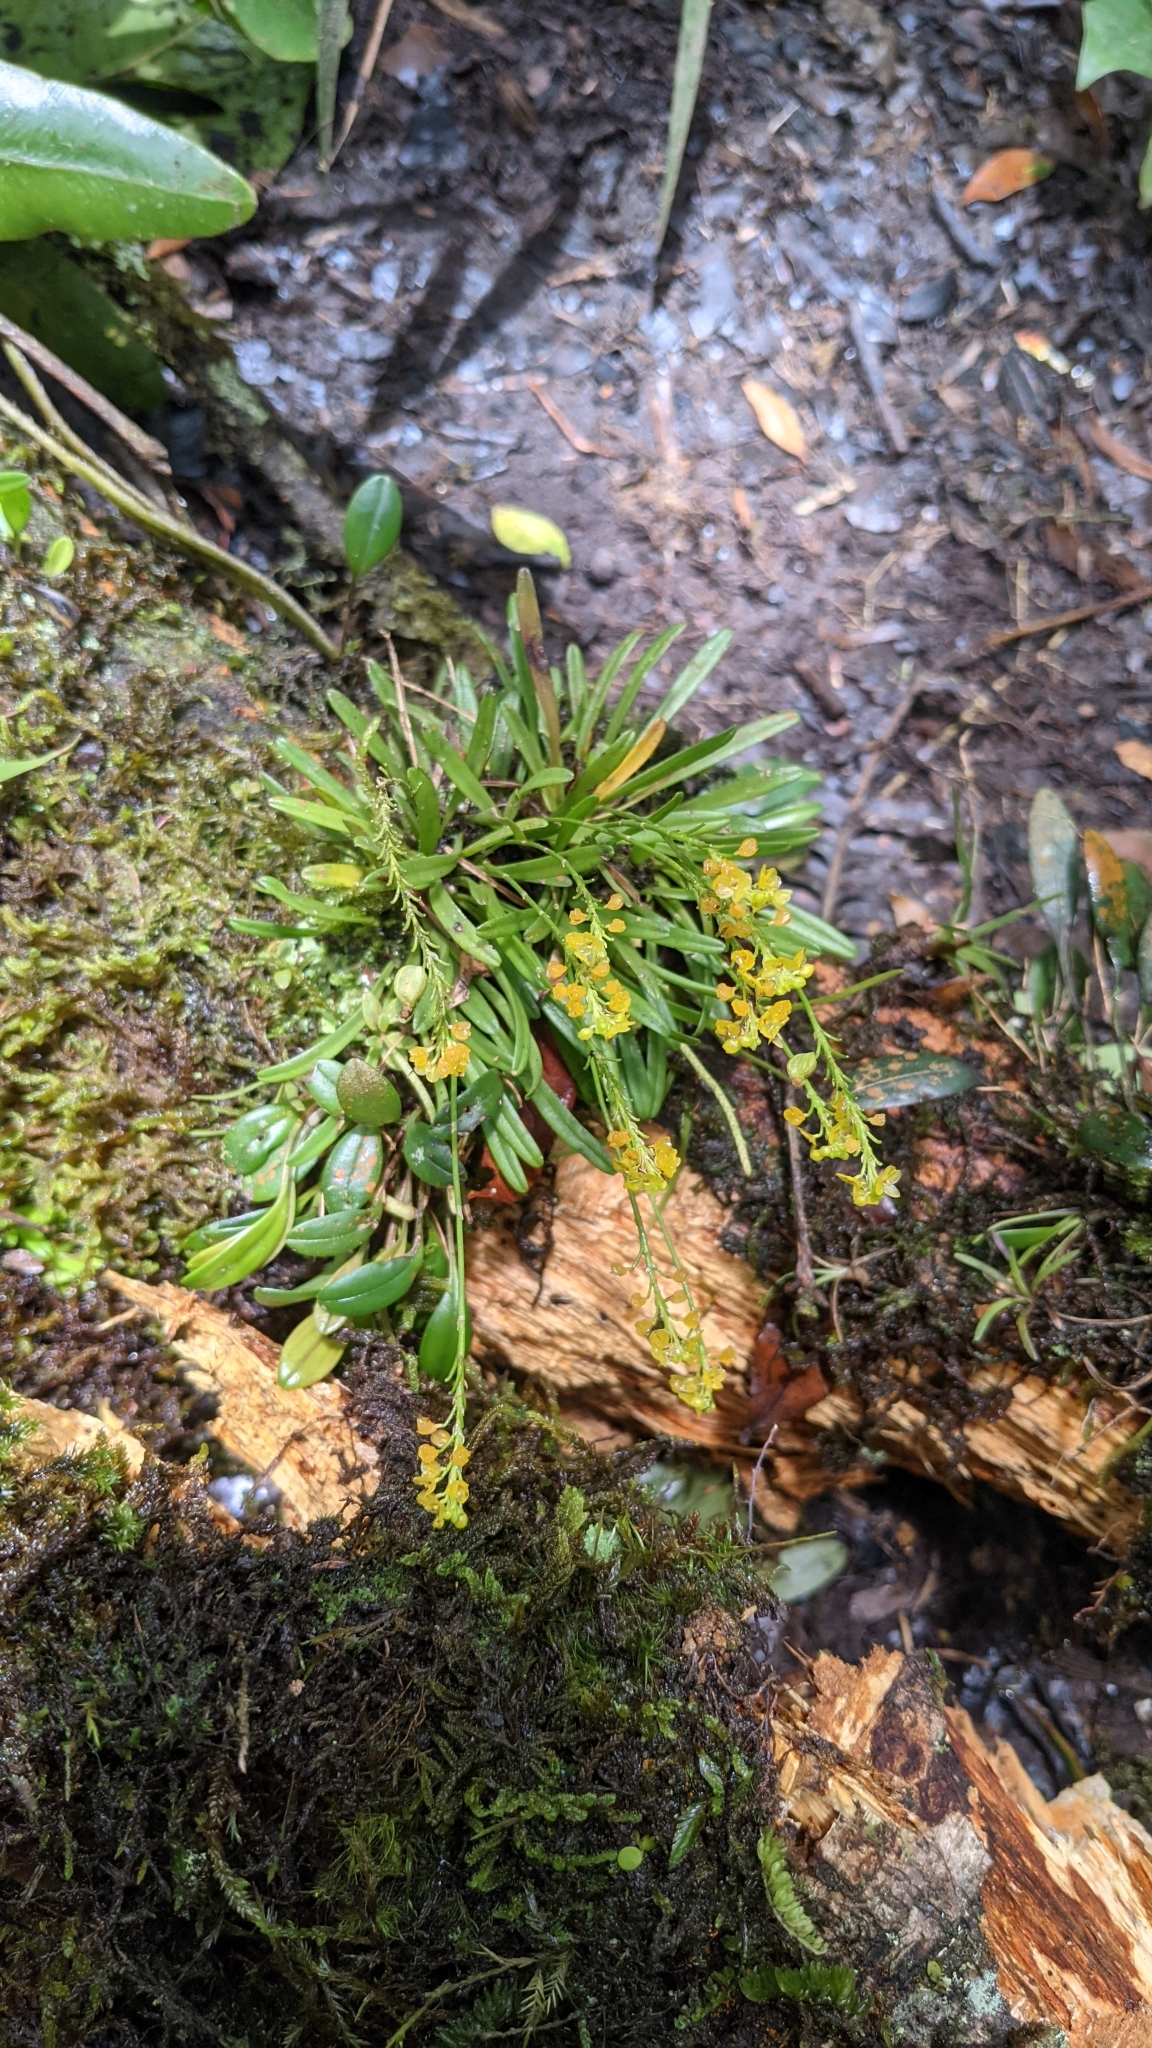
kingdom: Plantae
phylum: Tracheophyta
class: Liliopsida
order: Asparagales
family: Orchidaceae
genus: Platystele
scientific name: Platystele compacta
